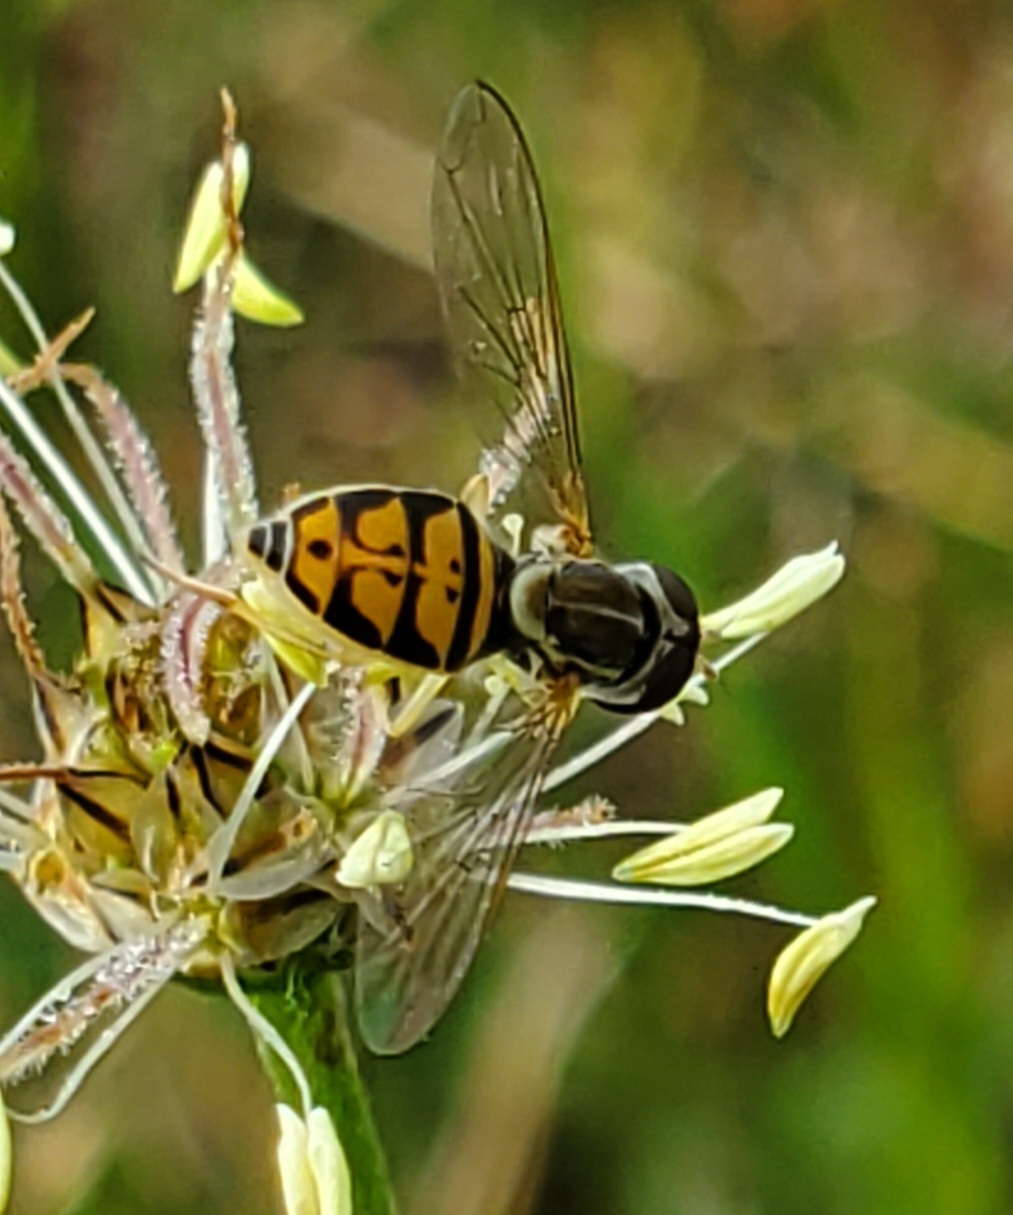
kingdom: Animalia
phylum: Arthropoda
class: Insecta
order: Diptera
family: Syrphidae
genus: Toxomerus
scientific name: Toxomerus marginatus
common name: Syrphid fly
